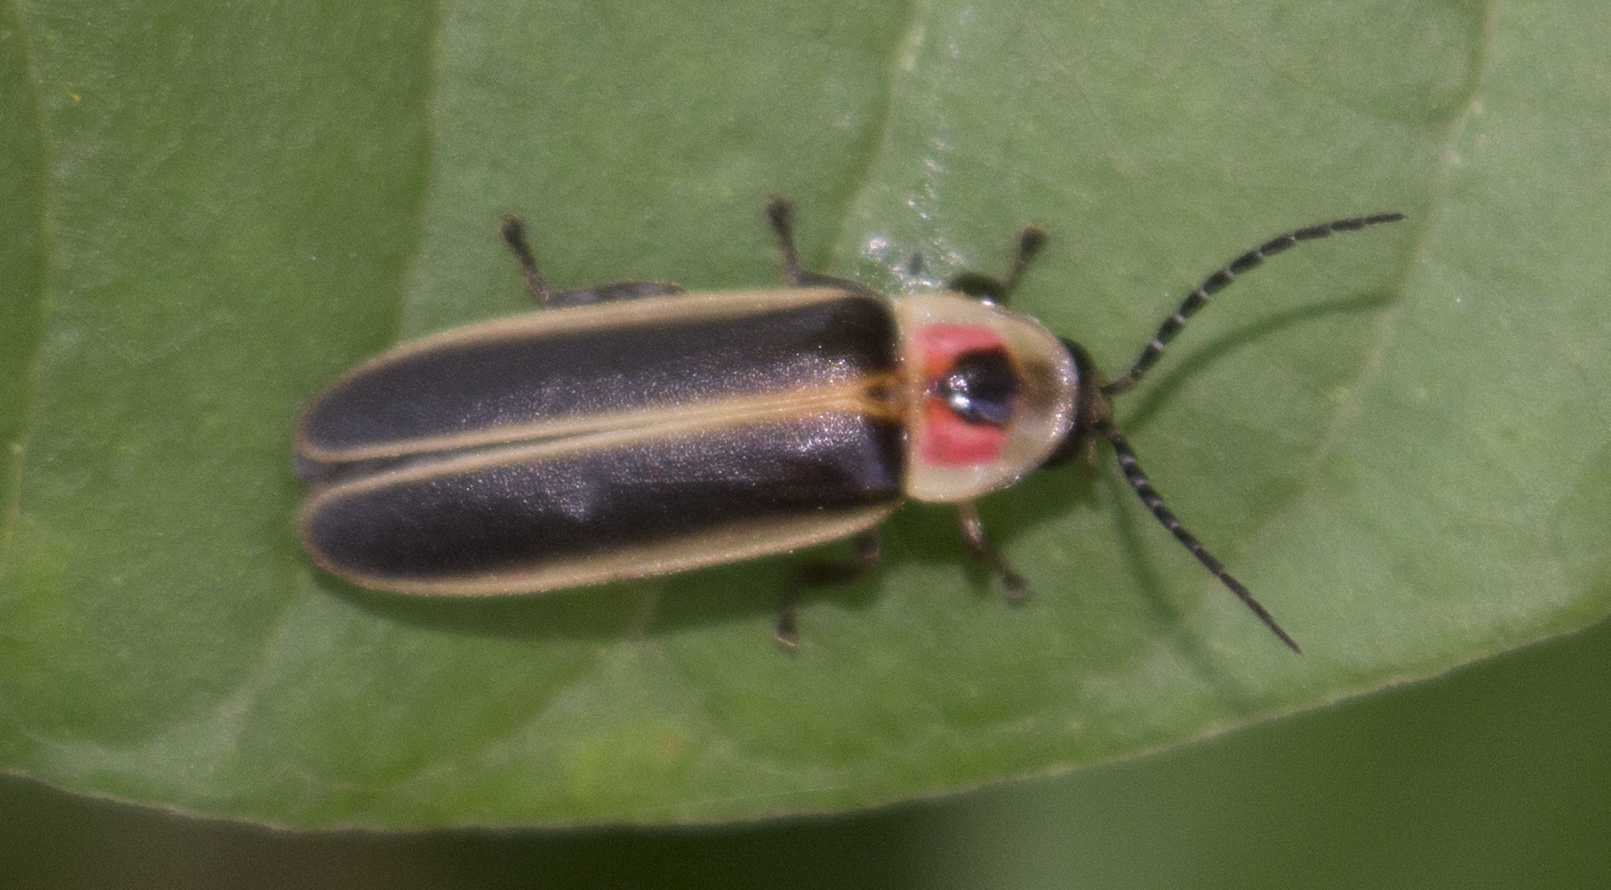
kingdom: Animalia
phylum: Arthropoda
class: Insecta
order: Coleoptera
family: Lampyridae
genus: Photinus
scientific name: Photinus pyralis
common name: Big dipper firefly
